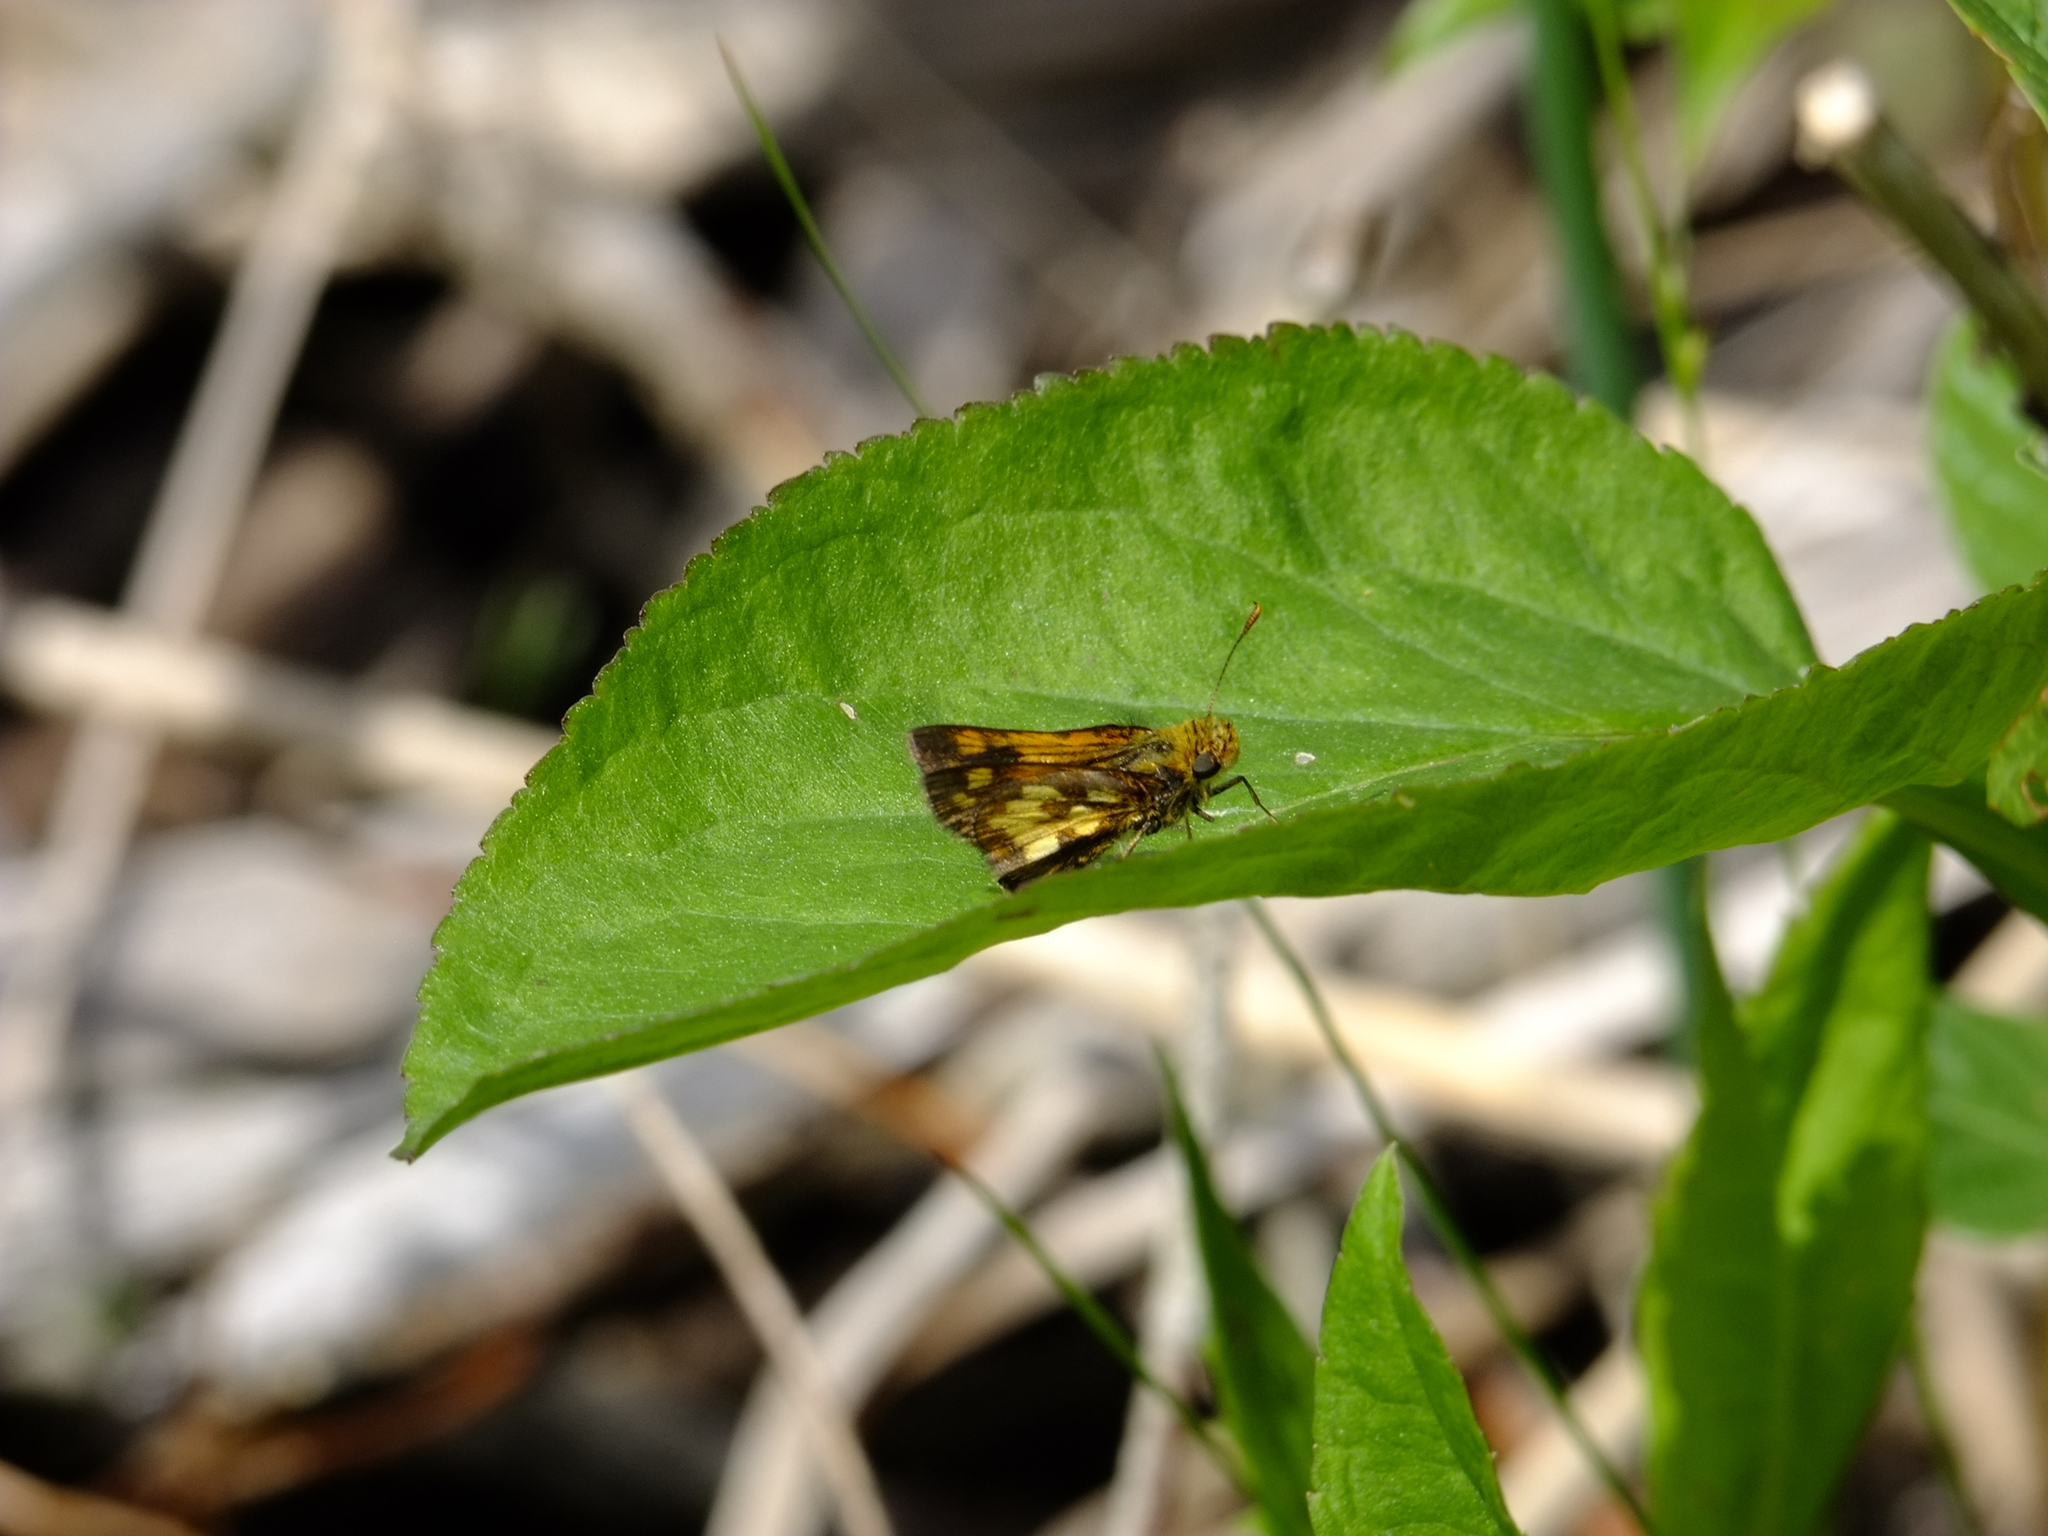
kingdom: Animalia
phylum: Arthropoda
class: Insecta
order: Lepidoptera
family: Hesperiidae
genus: Polites
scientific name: Polites coras
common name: Peck's skipper
